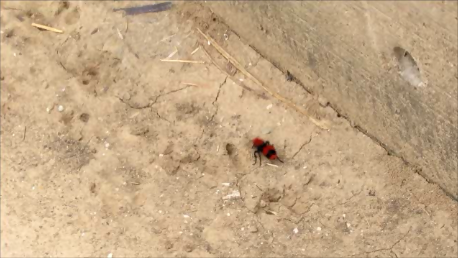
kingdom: Animalia
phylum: Arthropoda
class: Insecta
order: Hymenoptera
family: Mutillidae
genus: Dasymutilla
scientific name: Dasymutilla occidentalis
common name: Common eastern velvet ant
